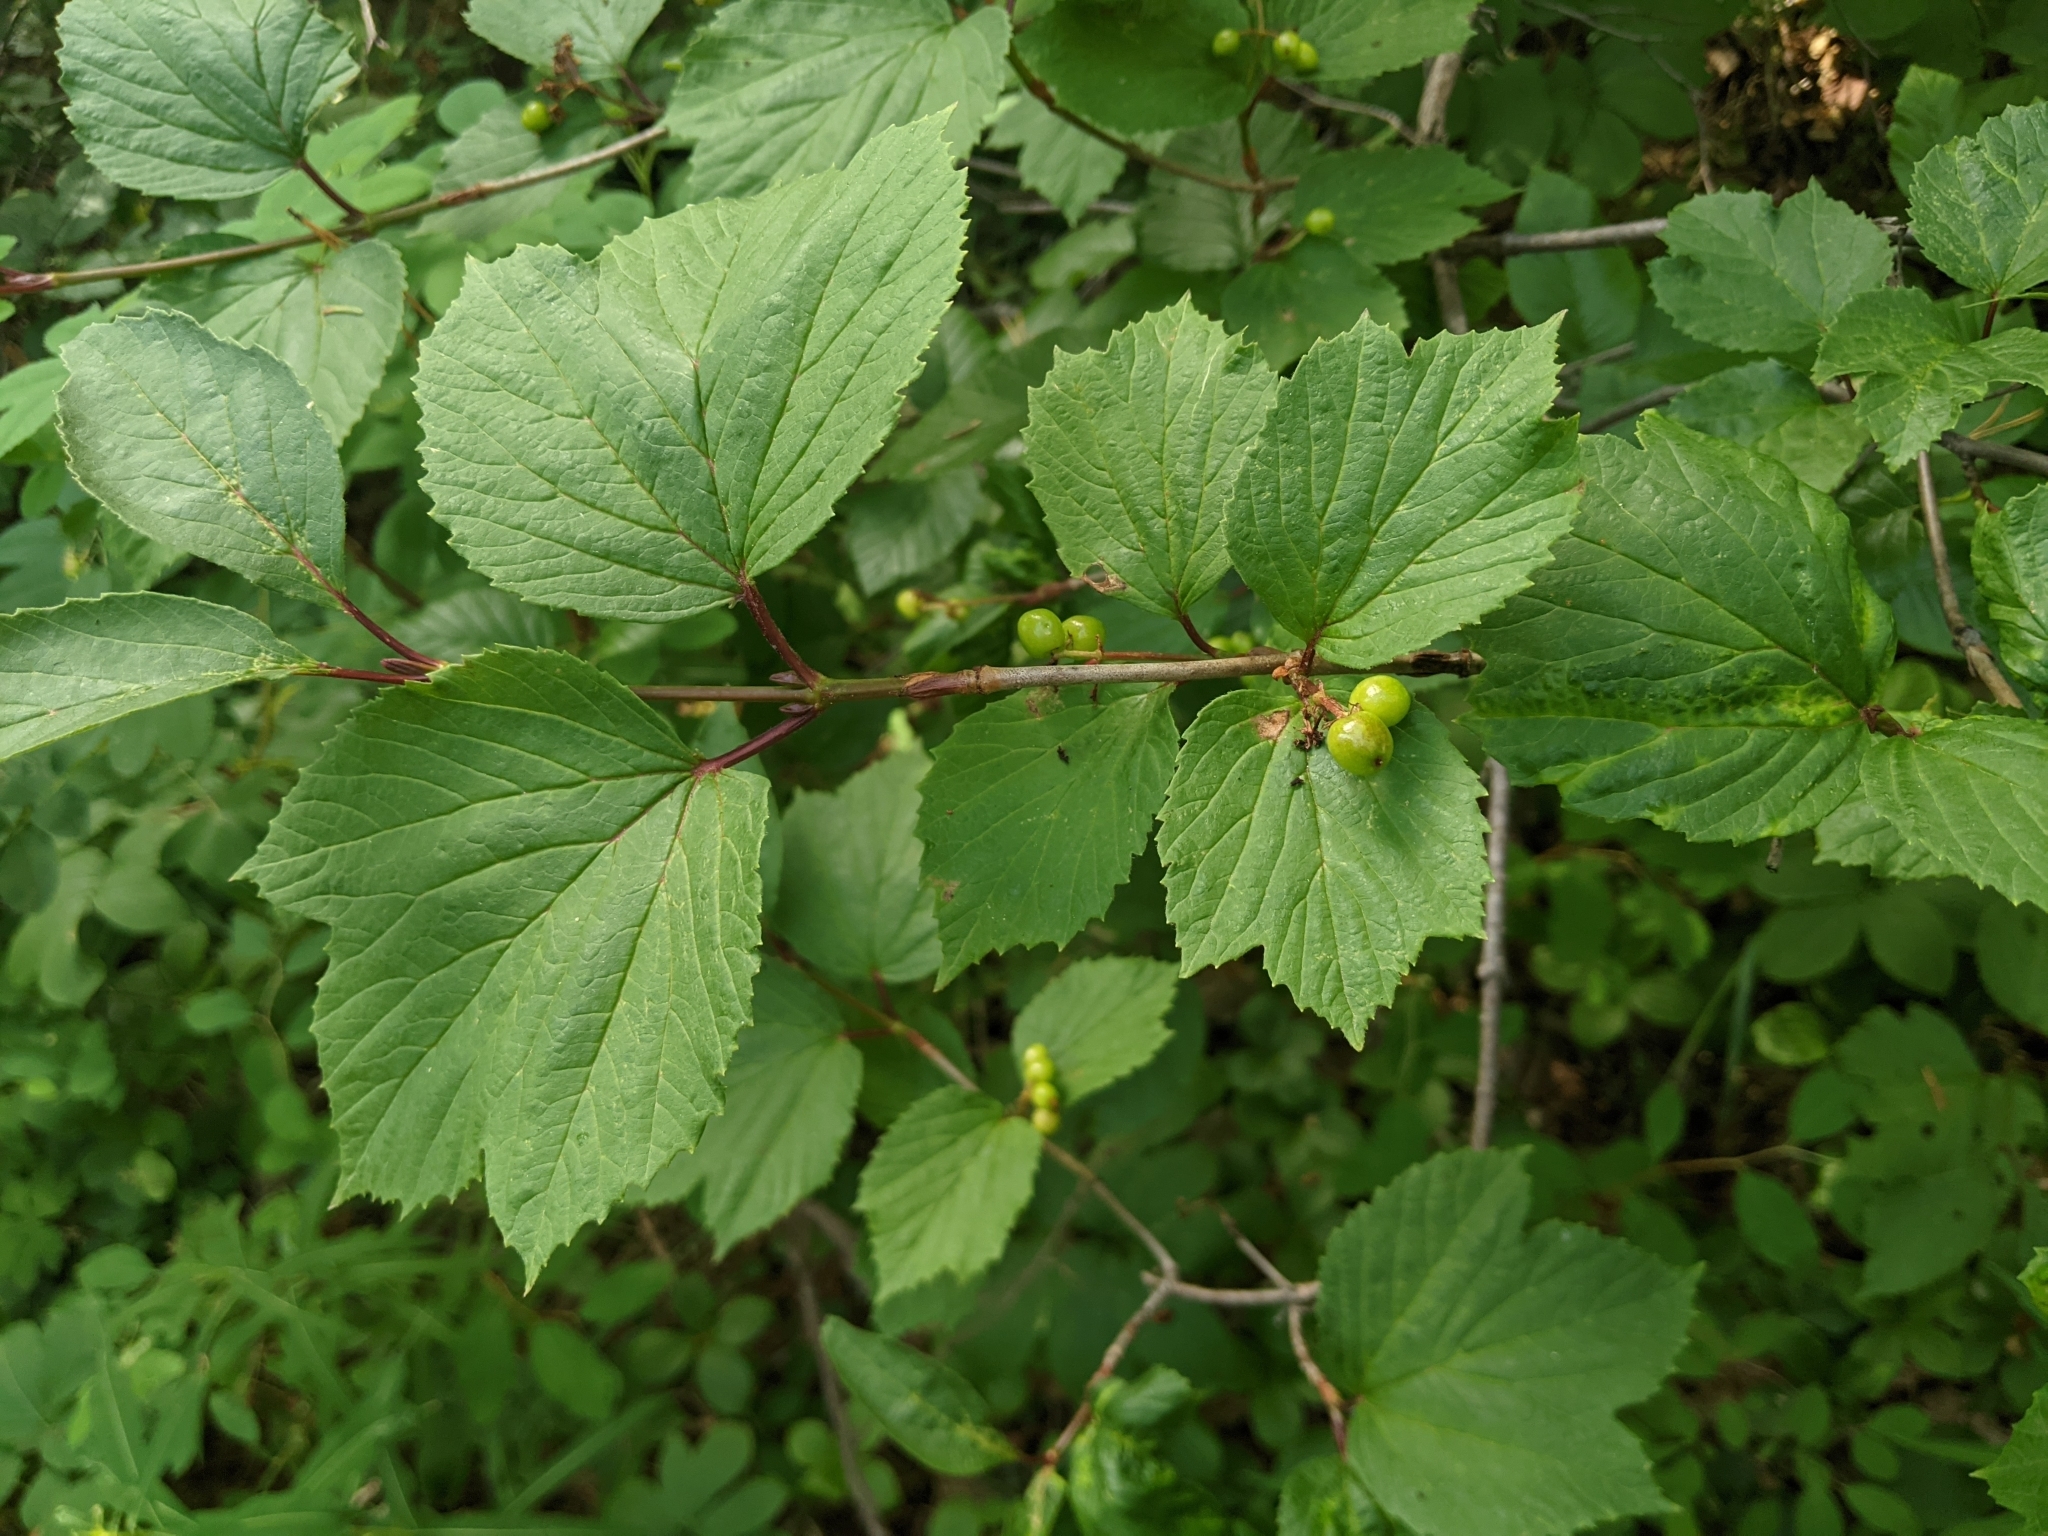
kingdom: Plantae
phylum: Tracheophyta
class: Magnoliopsida
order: Dipsacales
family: Viburnaceae
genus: Viburnum
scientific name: Viburnum edule
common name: Mooseberry
